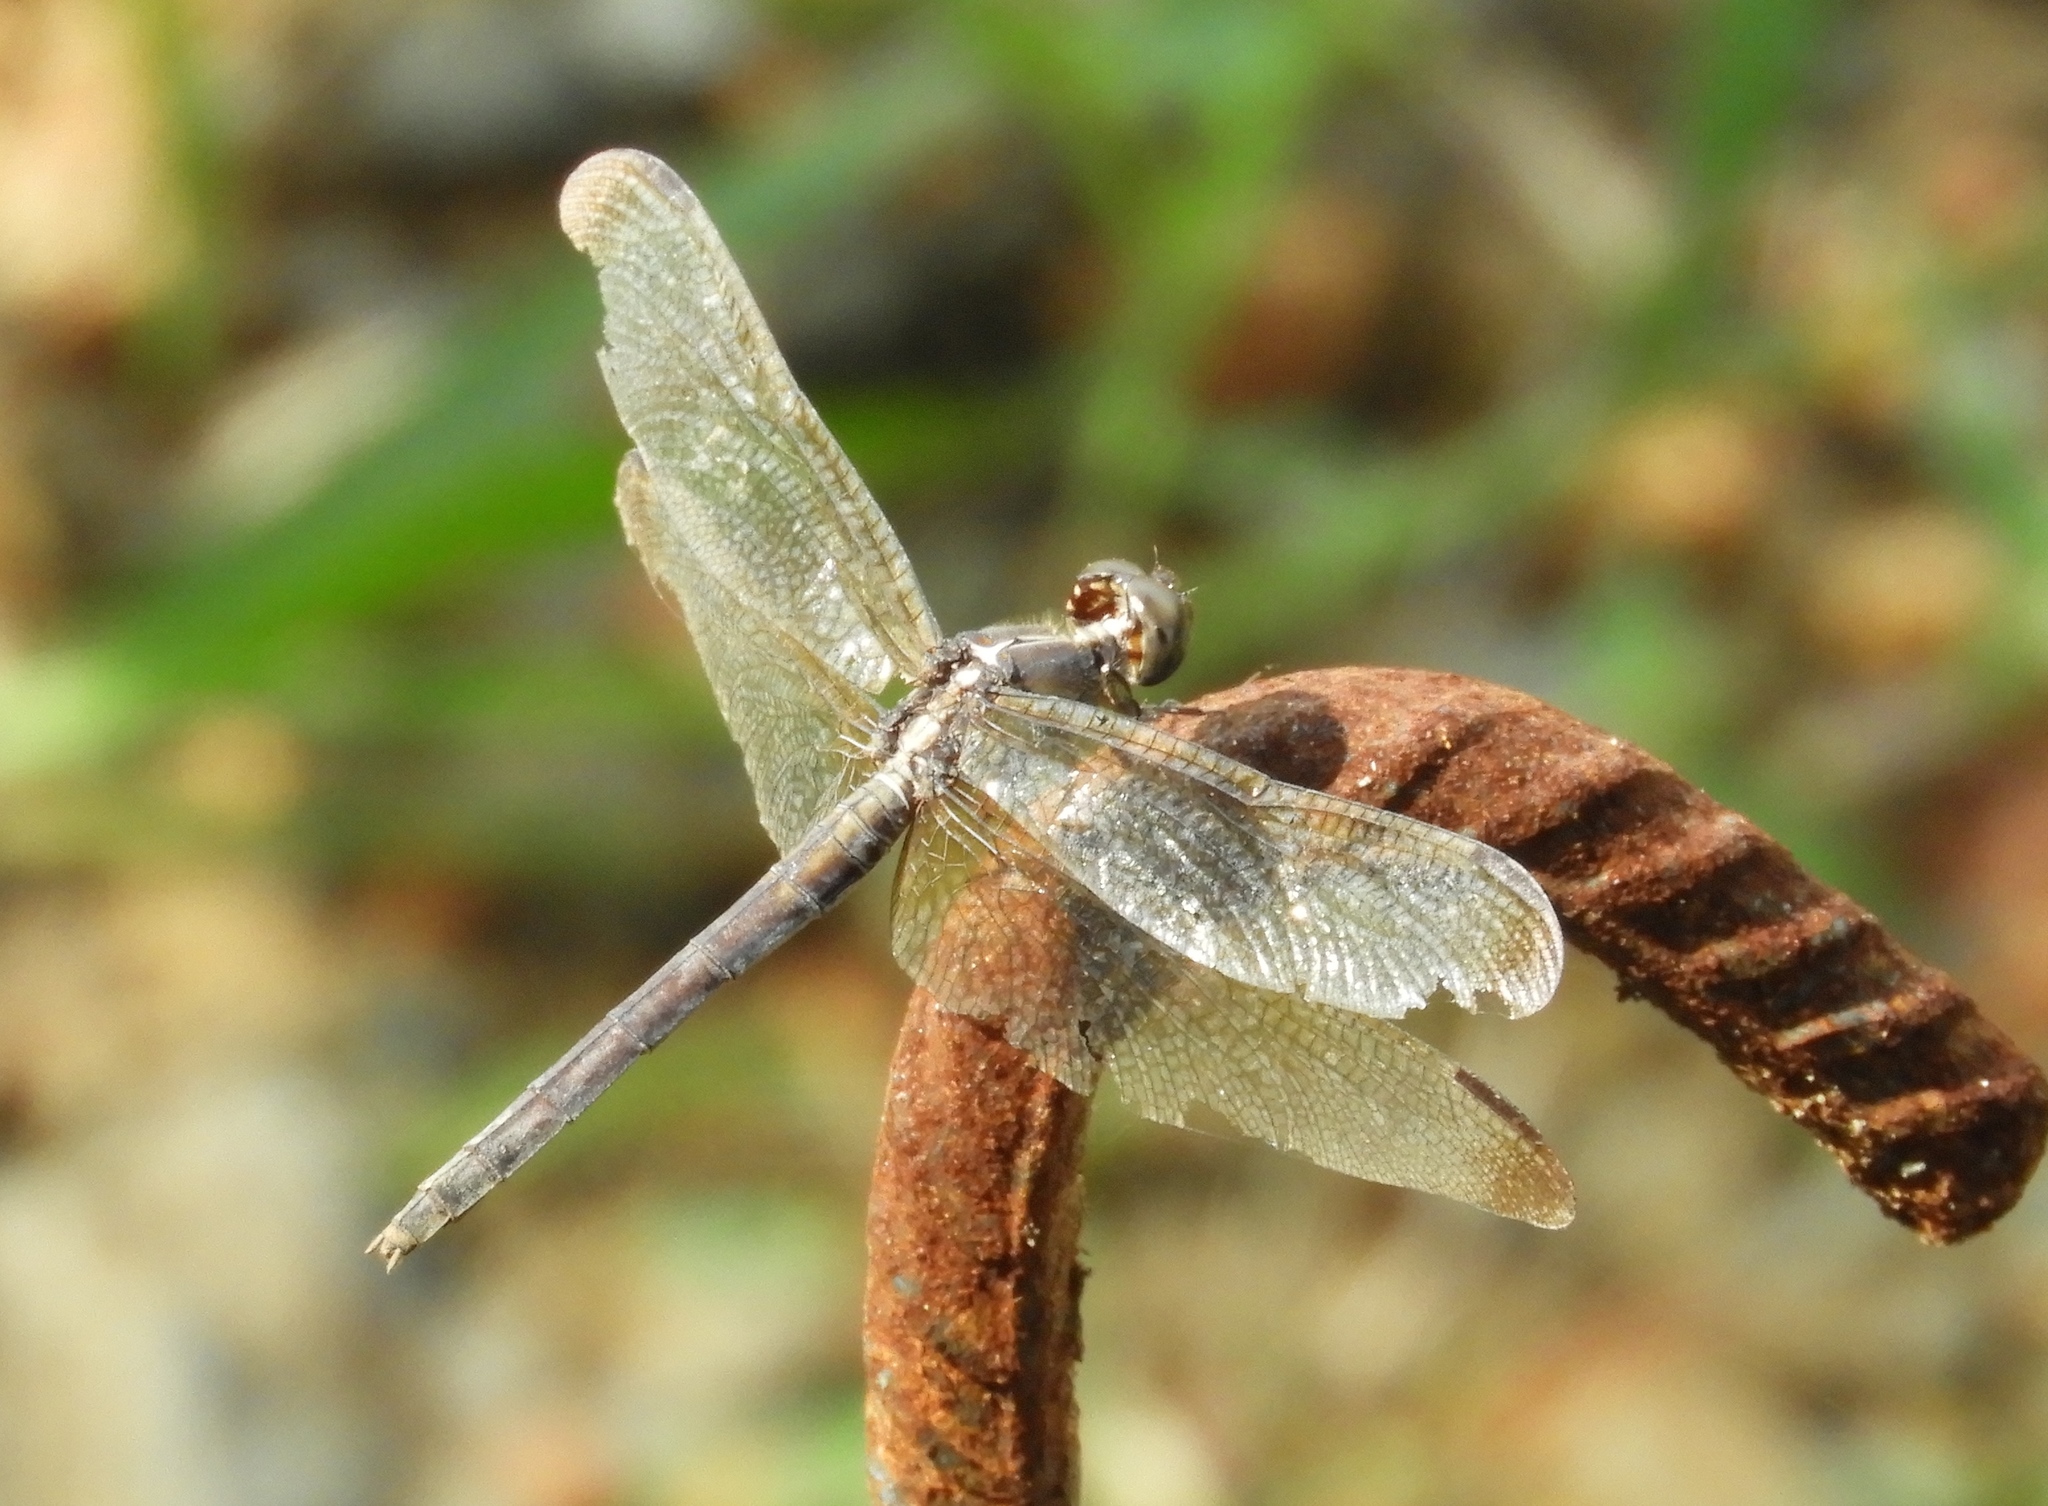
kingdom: Animalia
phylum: Arthropoda
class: Insecta
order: Odonata
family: Libellulidae
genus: Erythrodiplax
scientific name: Erythrodiplax funerea
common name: Black-winged dragonlet
